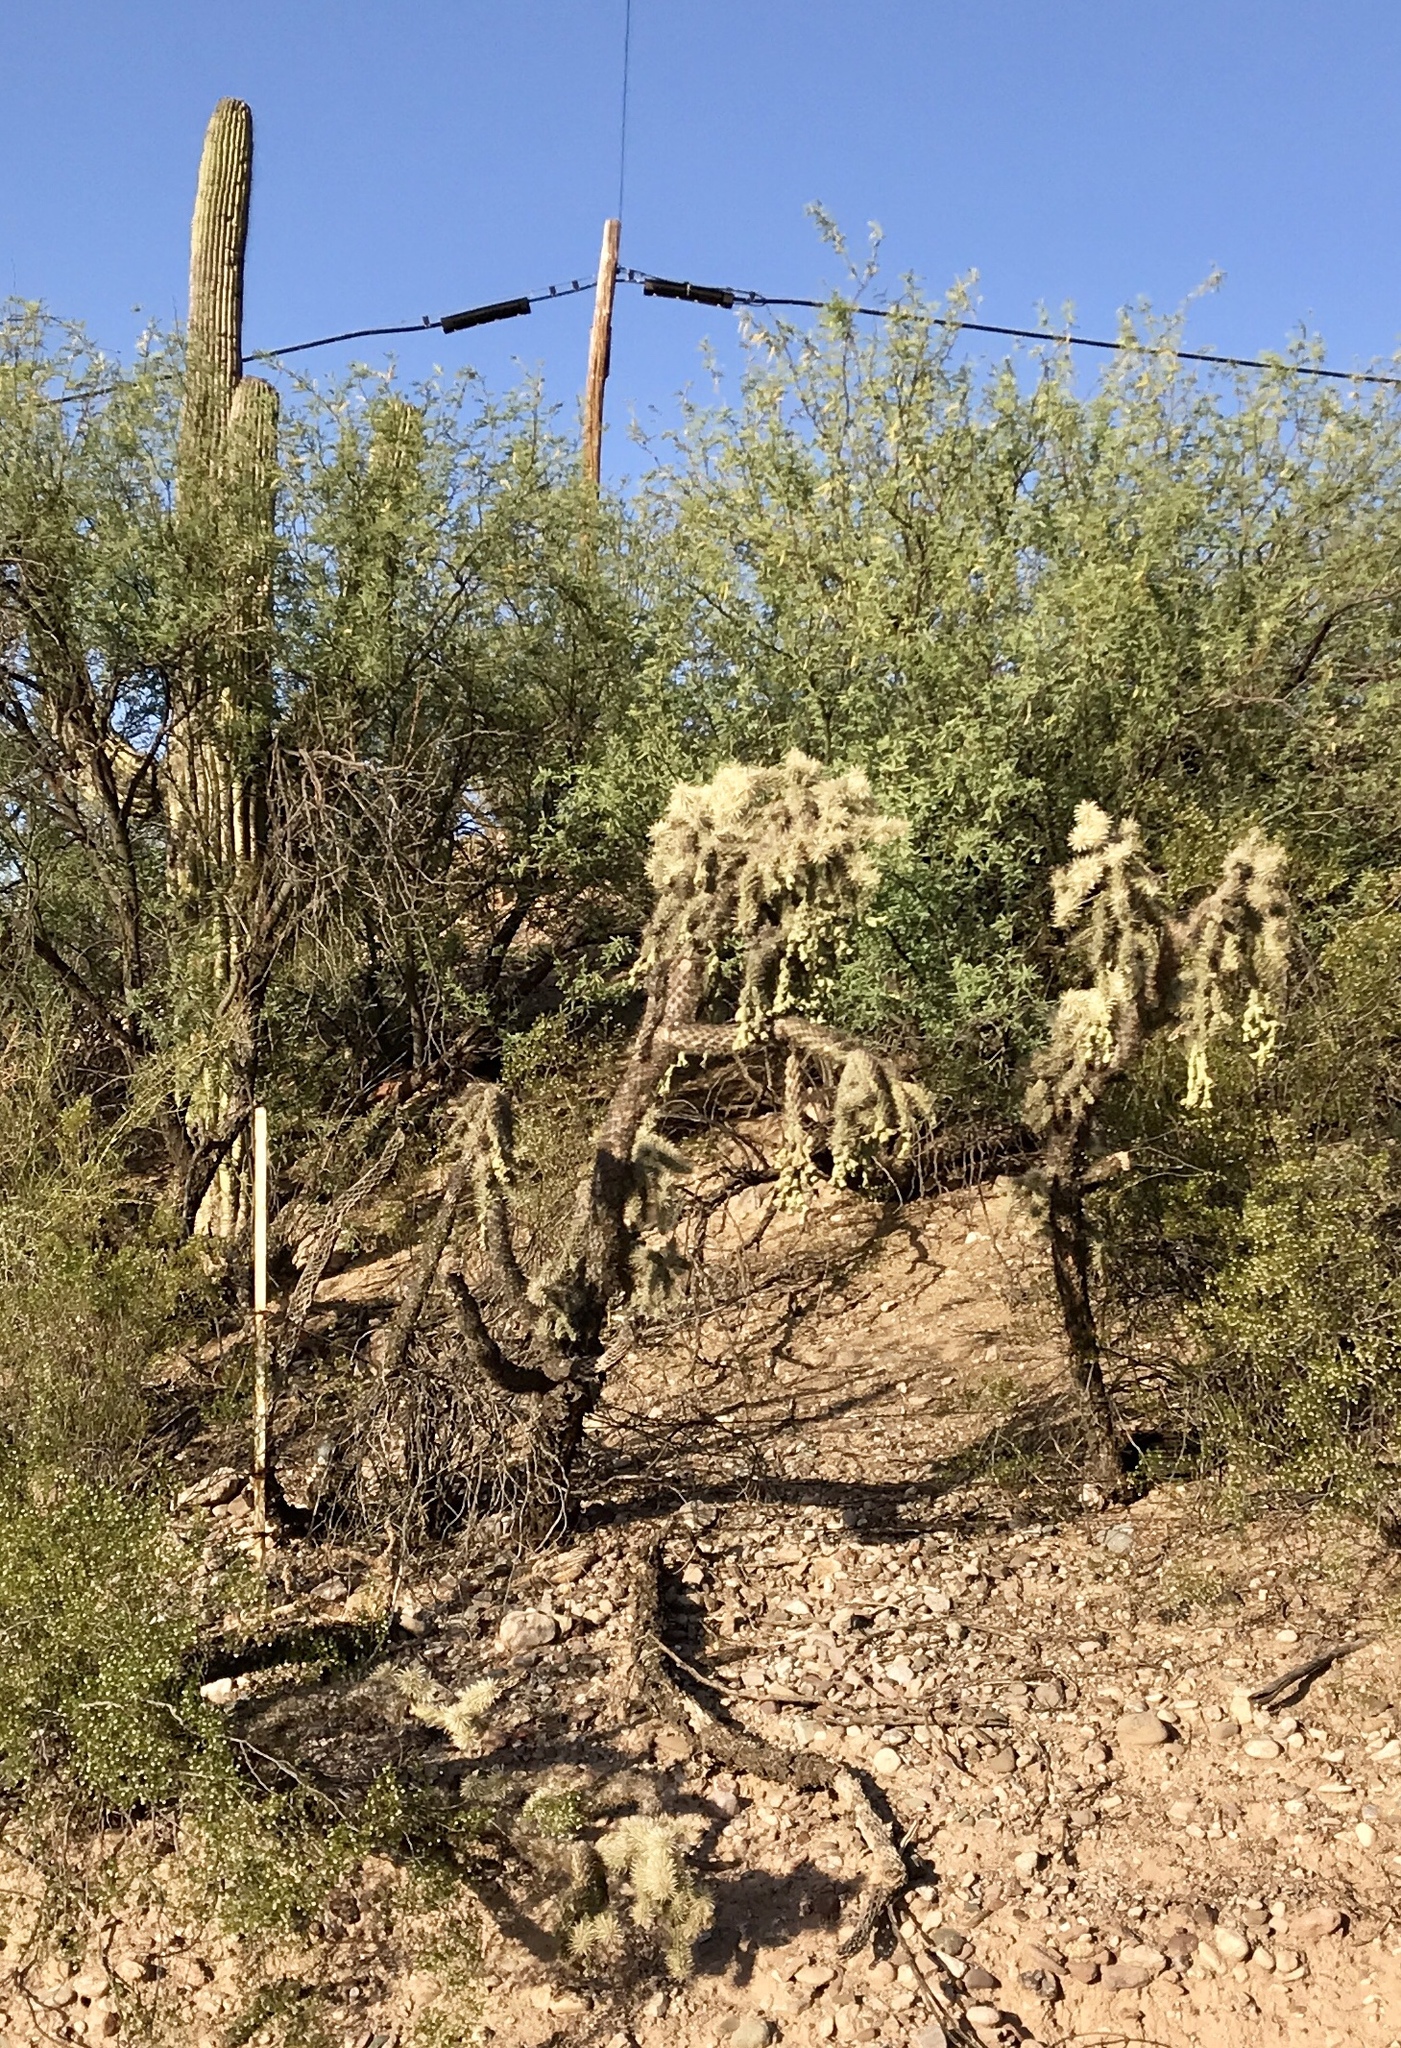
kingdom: Plantae
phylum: Tracheophyta
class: Magnoliopsida
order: Caryophyllales
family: Cactaceae
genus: Cylindropuntia
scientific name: Cylindropuntia fulgida
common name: Jumping cholla
